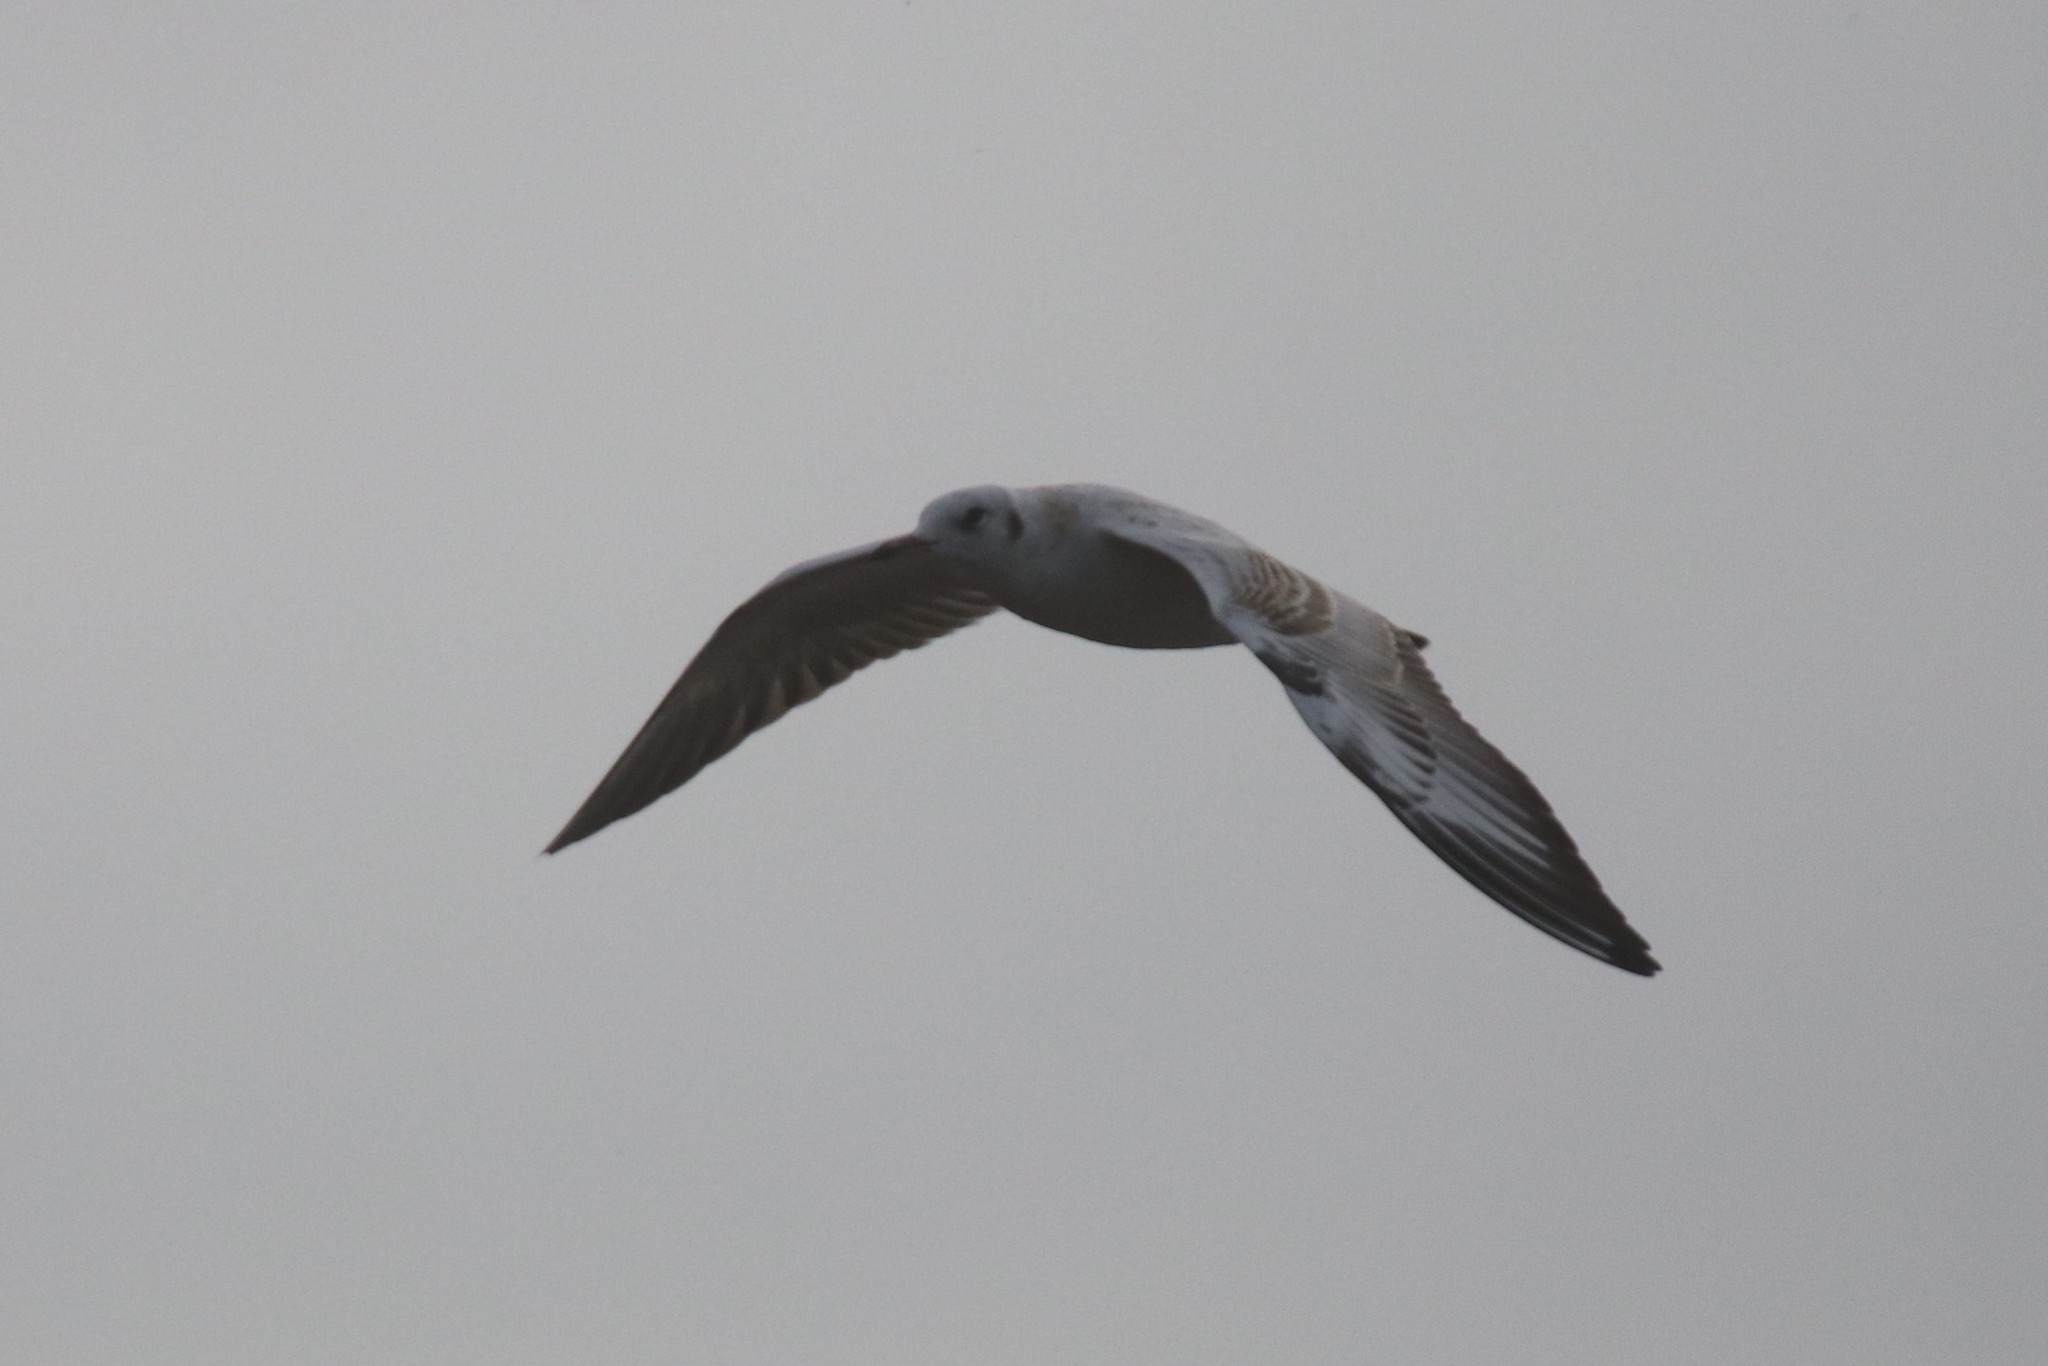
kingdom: Animalia
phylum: Chordata
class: Aves
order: Charadriiformes
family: Laridae
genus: Chroicocephalus
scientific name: Chroicocephalus ridibundus
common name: Black-headed gull
